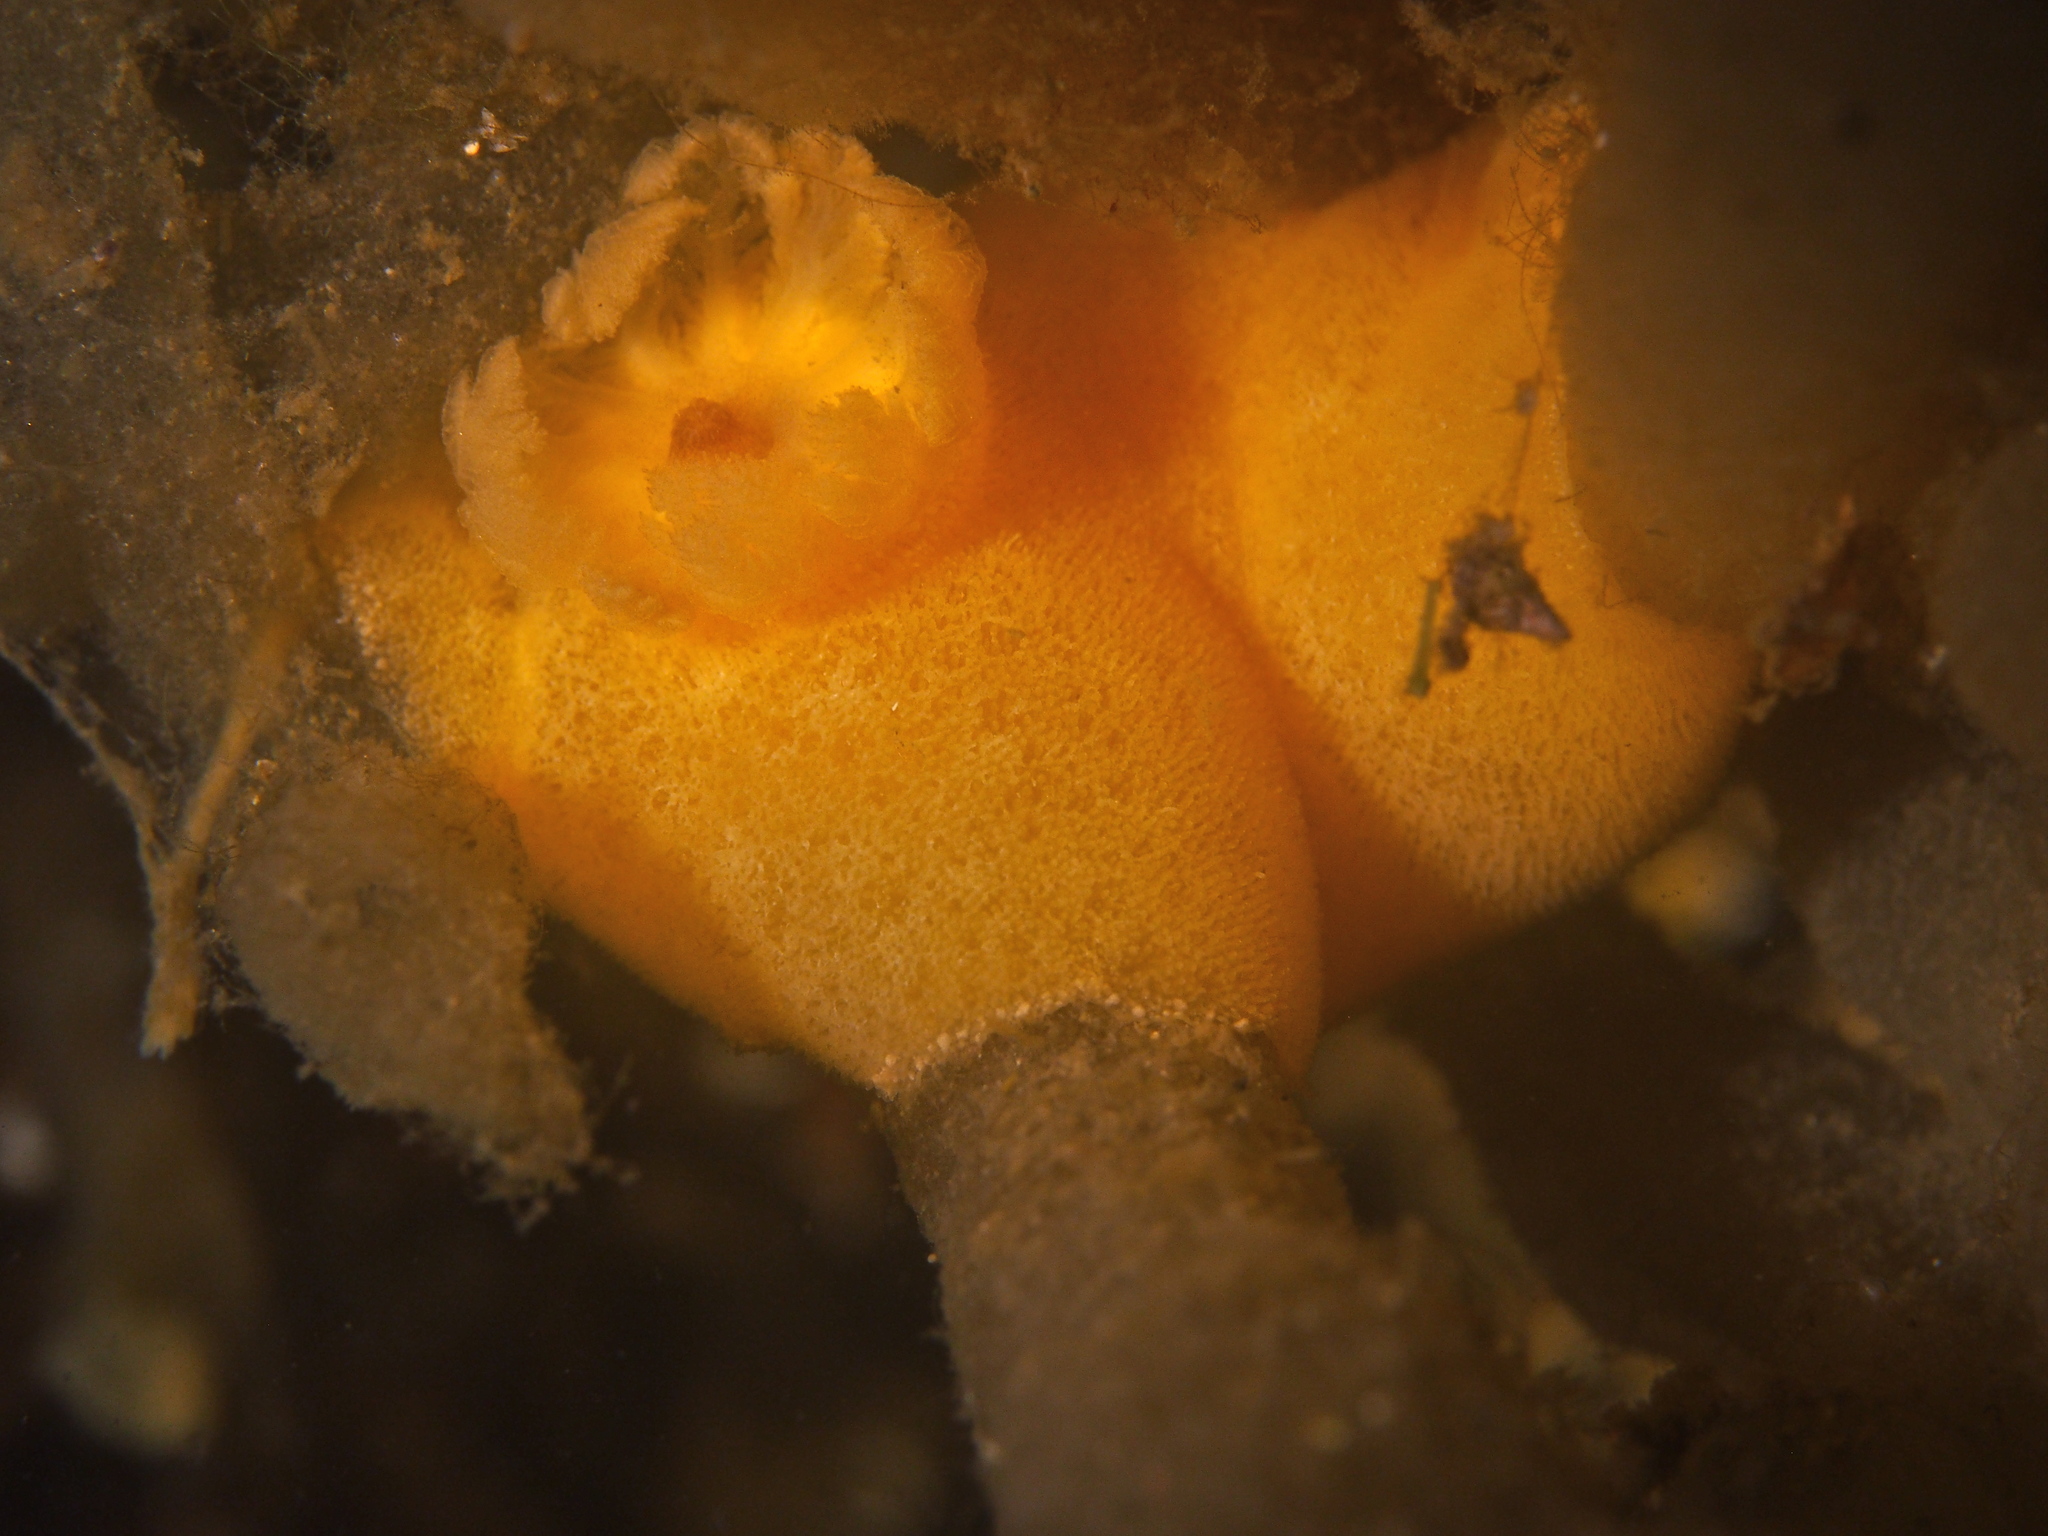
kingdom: Animalia
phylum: Mollusca
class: Gastropoda
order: Nudibranchia
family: Discodorididae
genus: Jorunna
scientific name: Jorunna tomentosa
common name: Grey sea slug
